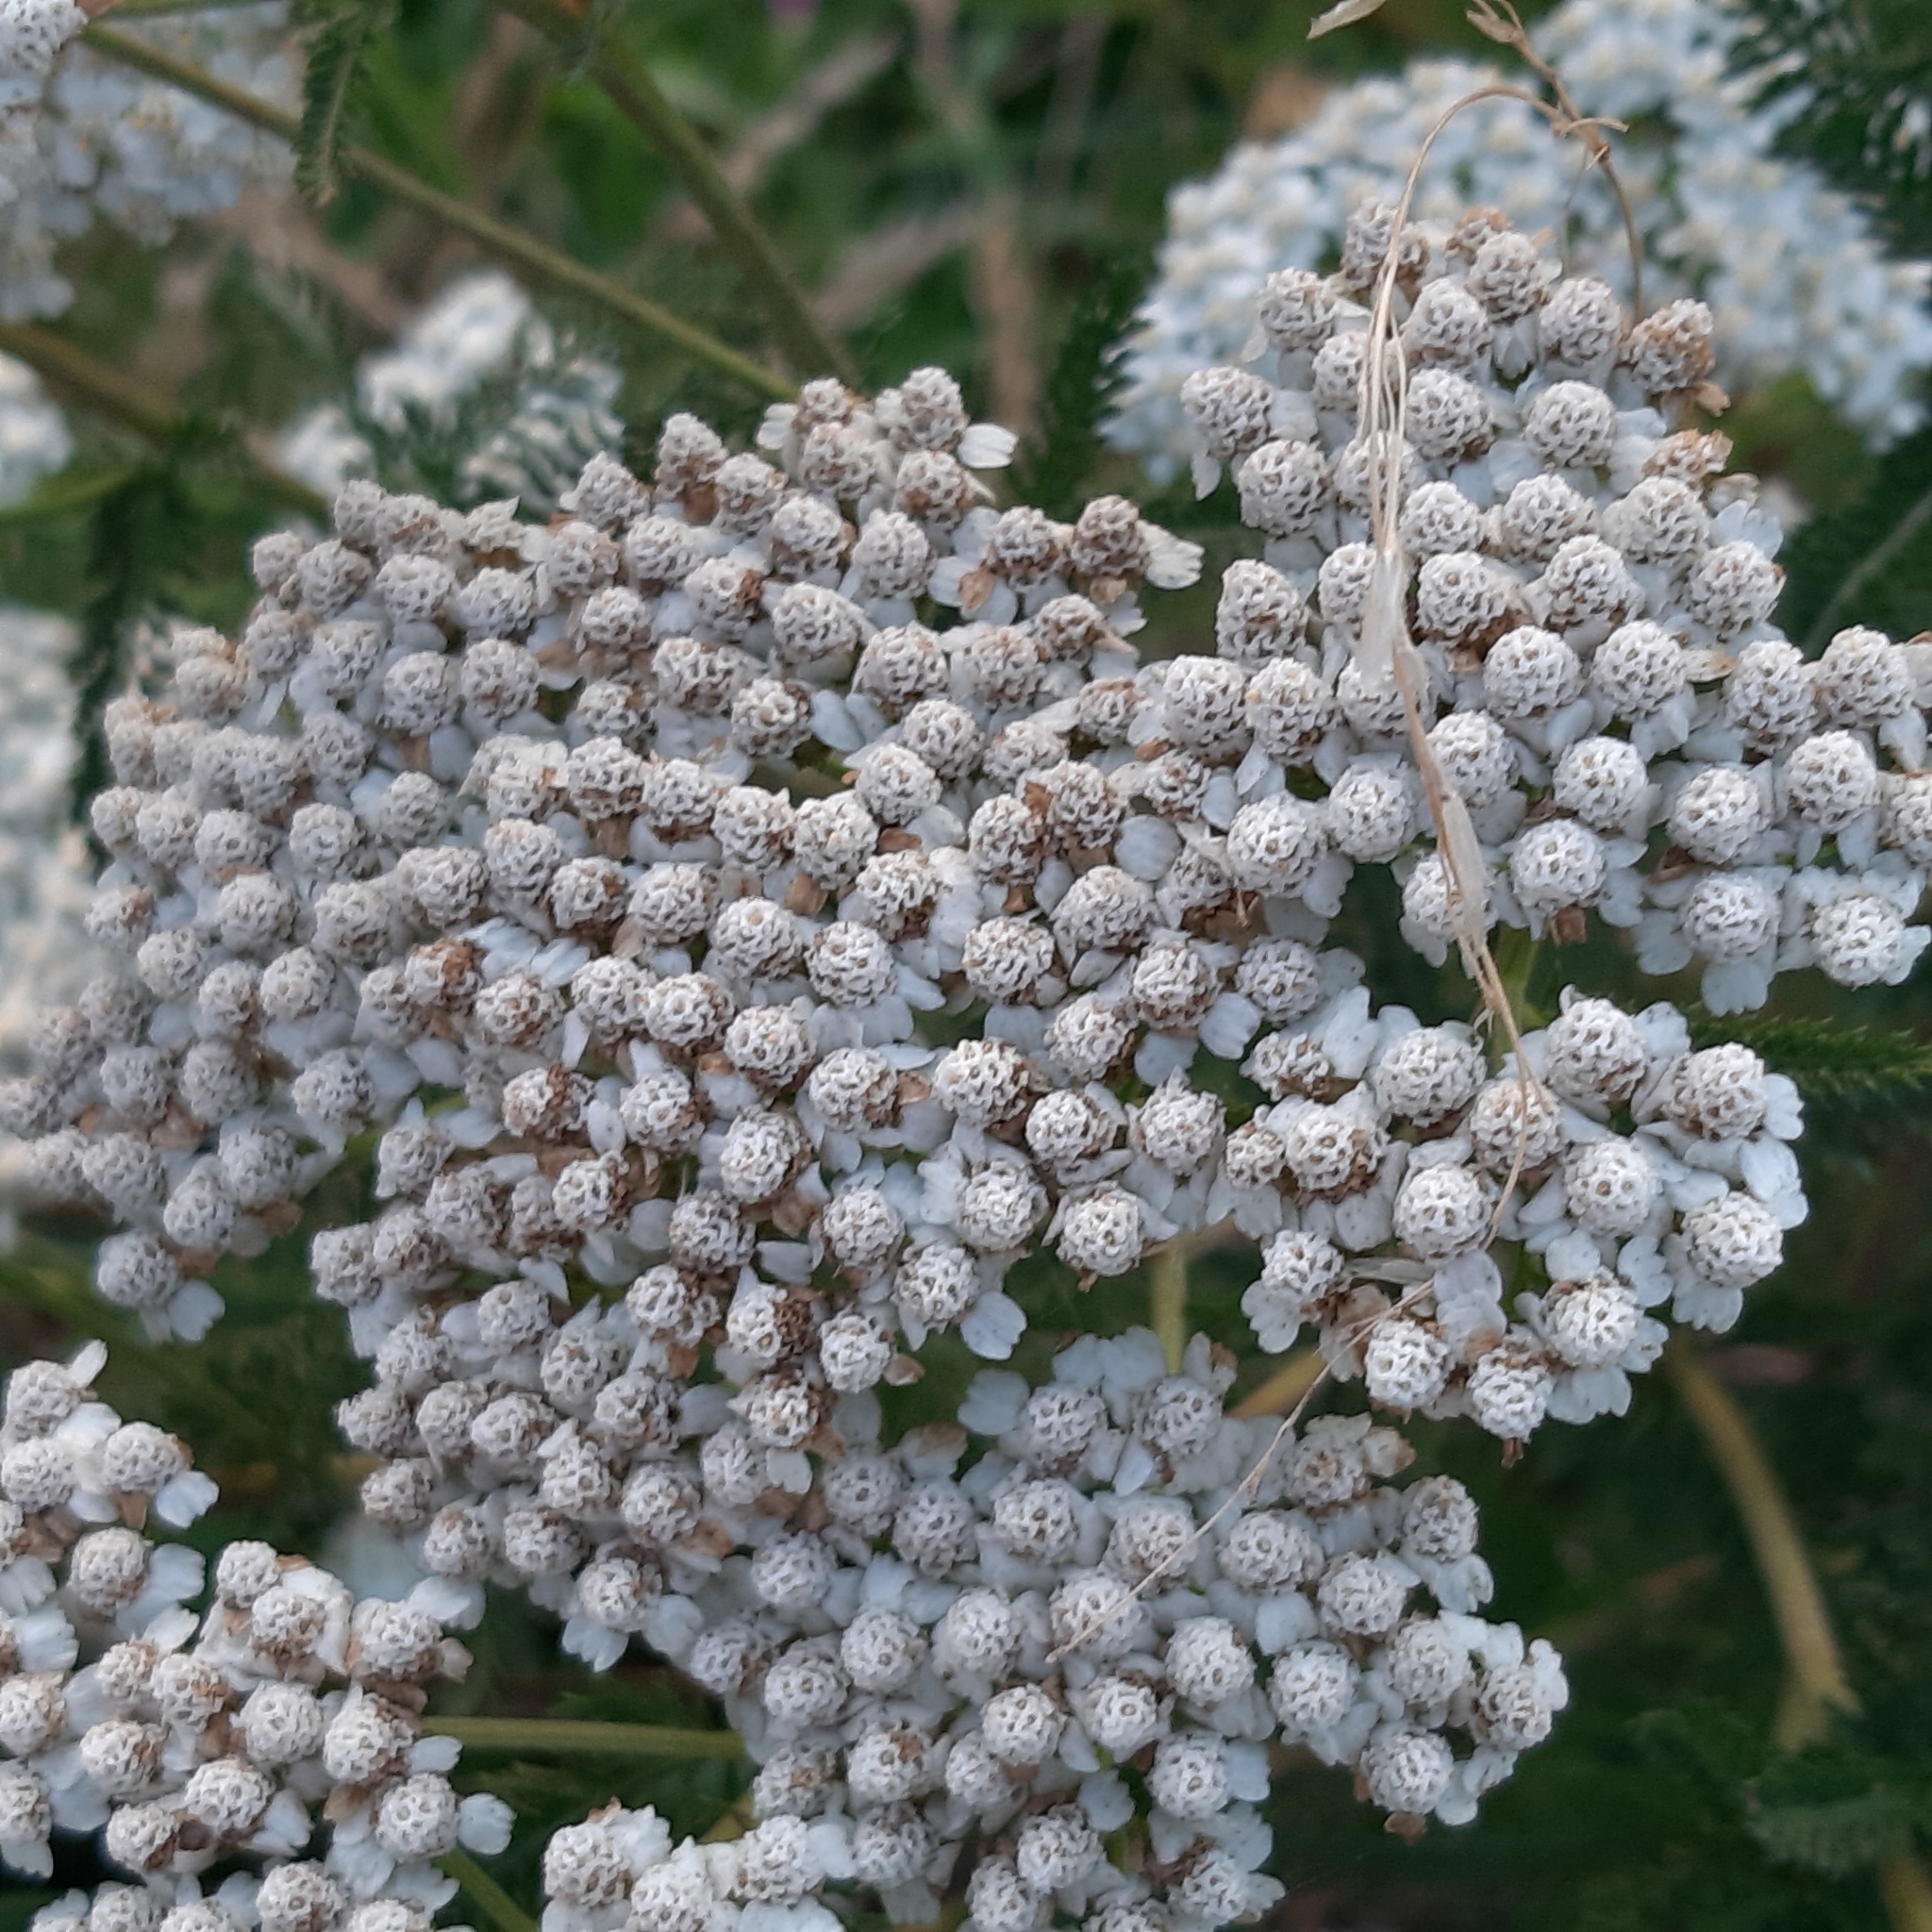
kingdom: Plantae
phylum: Tracheophyta
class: Magnoliopsida
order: Asterales
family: Asteraceae
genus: Achillea
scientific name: Achillea millefolium
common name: Yarrow
